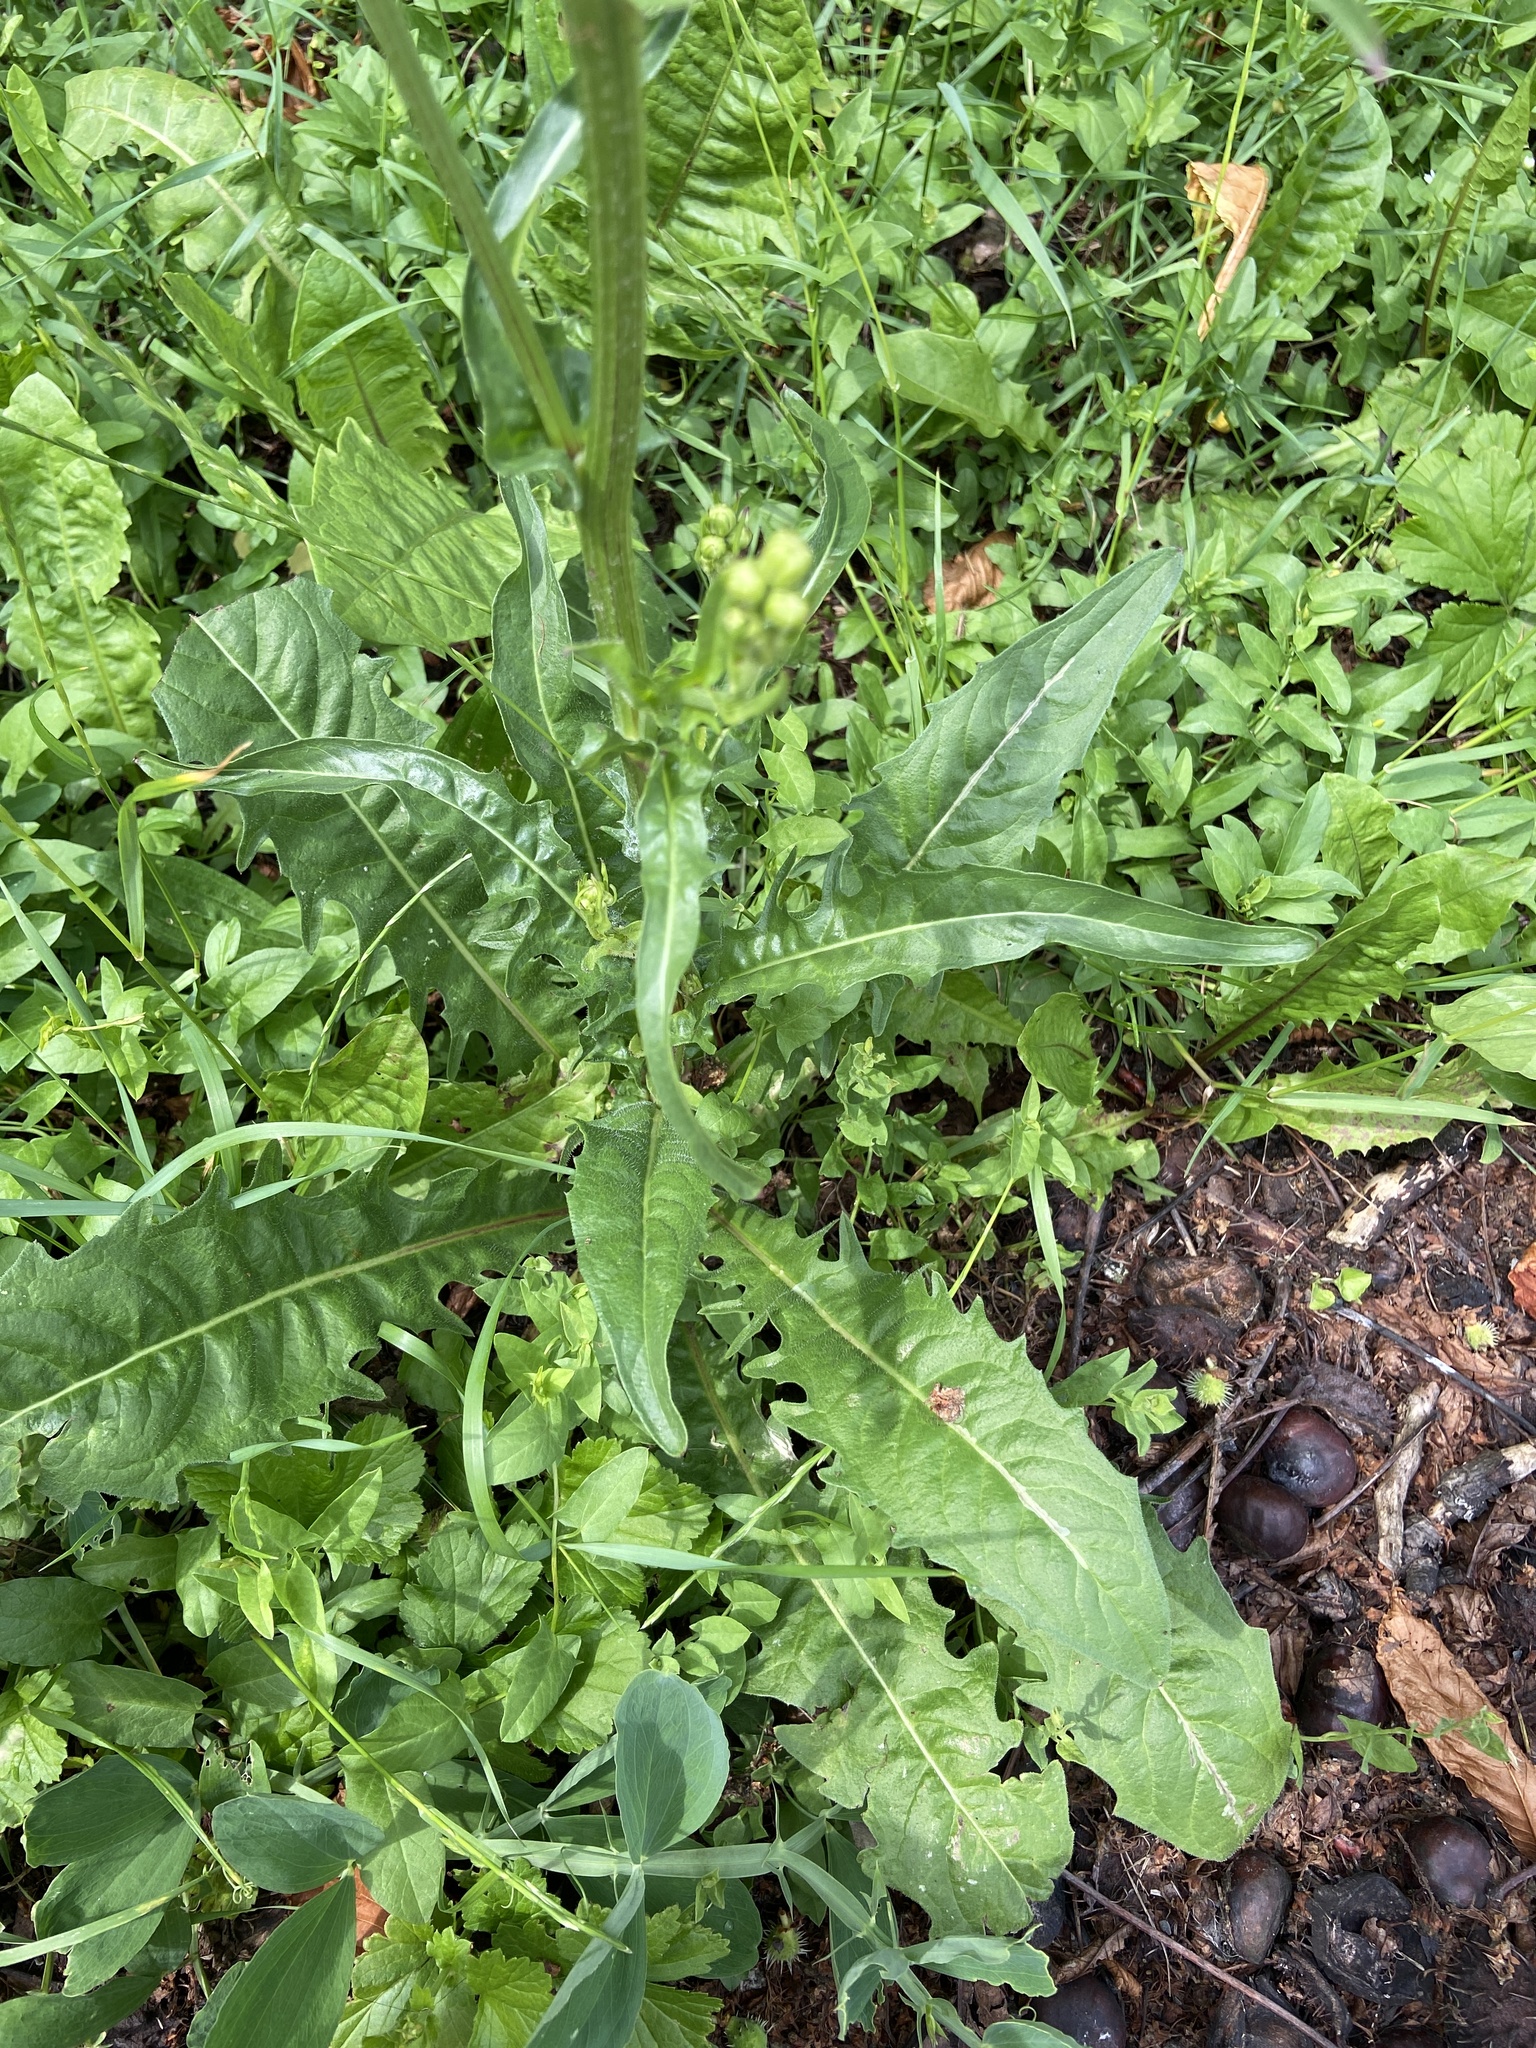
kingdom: Plantae
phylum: Tracheophyta
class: Magnoliopsida
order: Asterales
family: Asteraceae
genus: Crepis
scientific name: Crepis biennis
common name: Rough hawk's-beard
